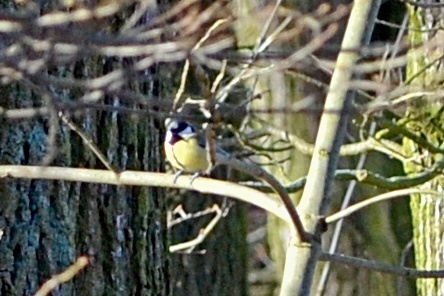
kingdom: Animalia
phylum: Chordata
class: Aves
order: Passeriformes
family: Paridae
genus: Parus
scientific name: Parus major
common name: Great tit
